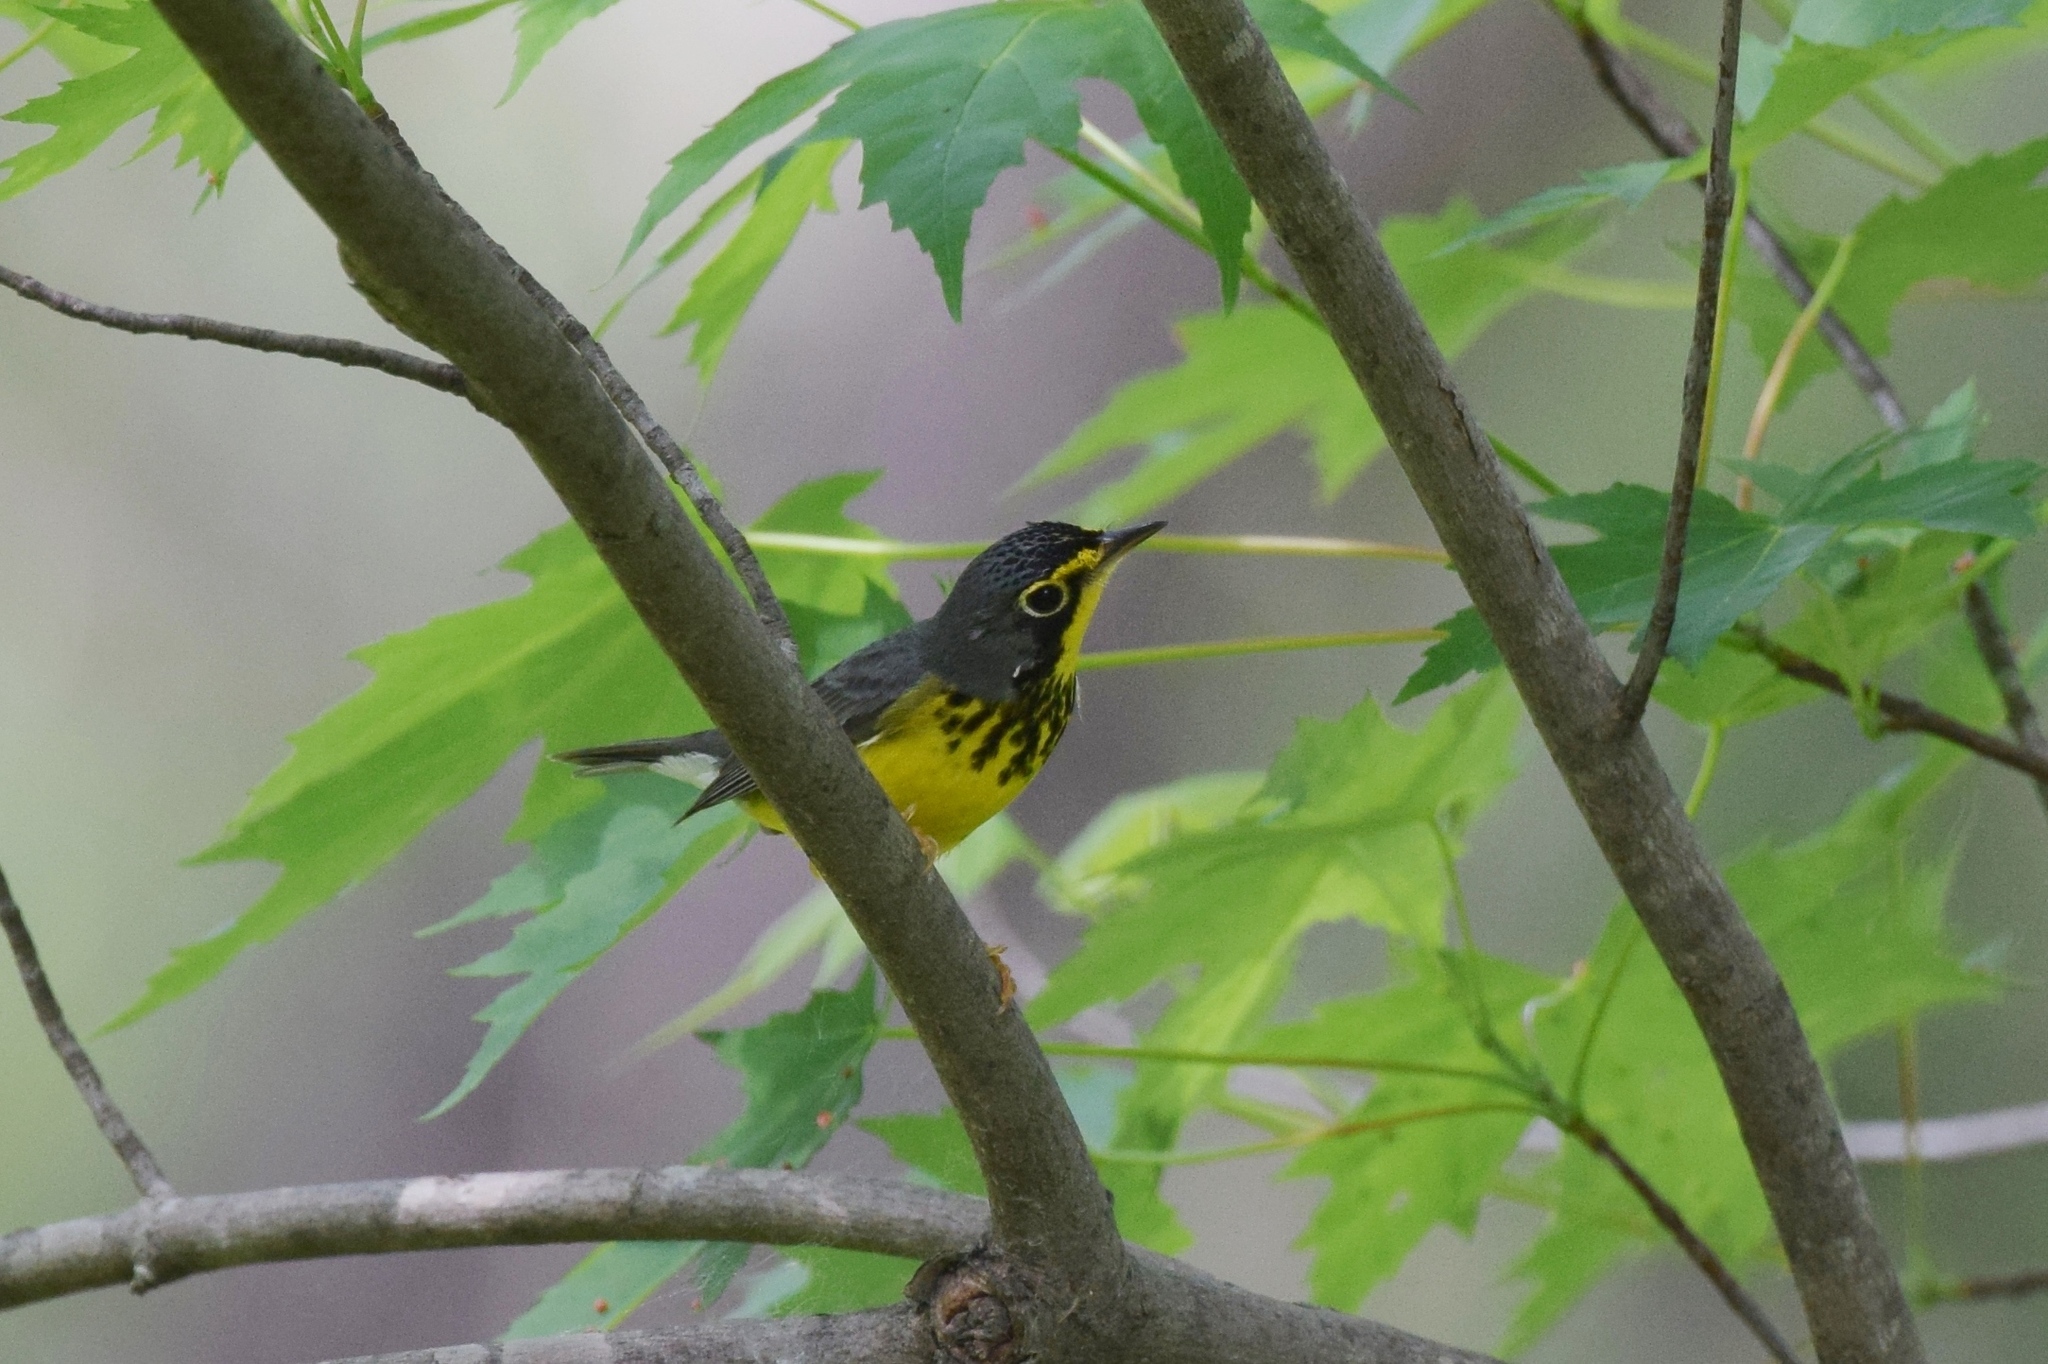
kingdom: Animalia
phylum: Chordata
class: Aves
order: Passeriformes
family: Parulidae
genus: Cardellina
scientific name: Cardellina canadensis
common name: Canada warbler
